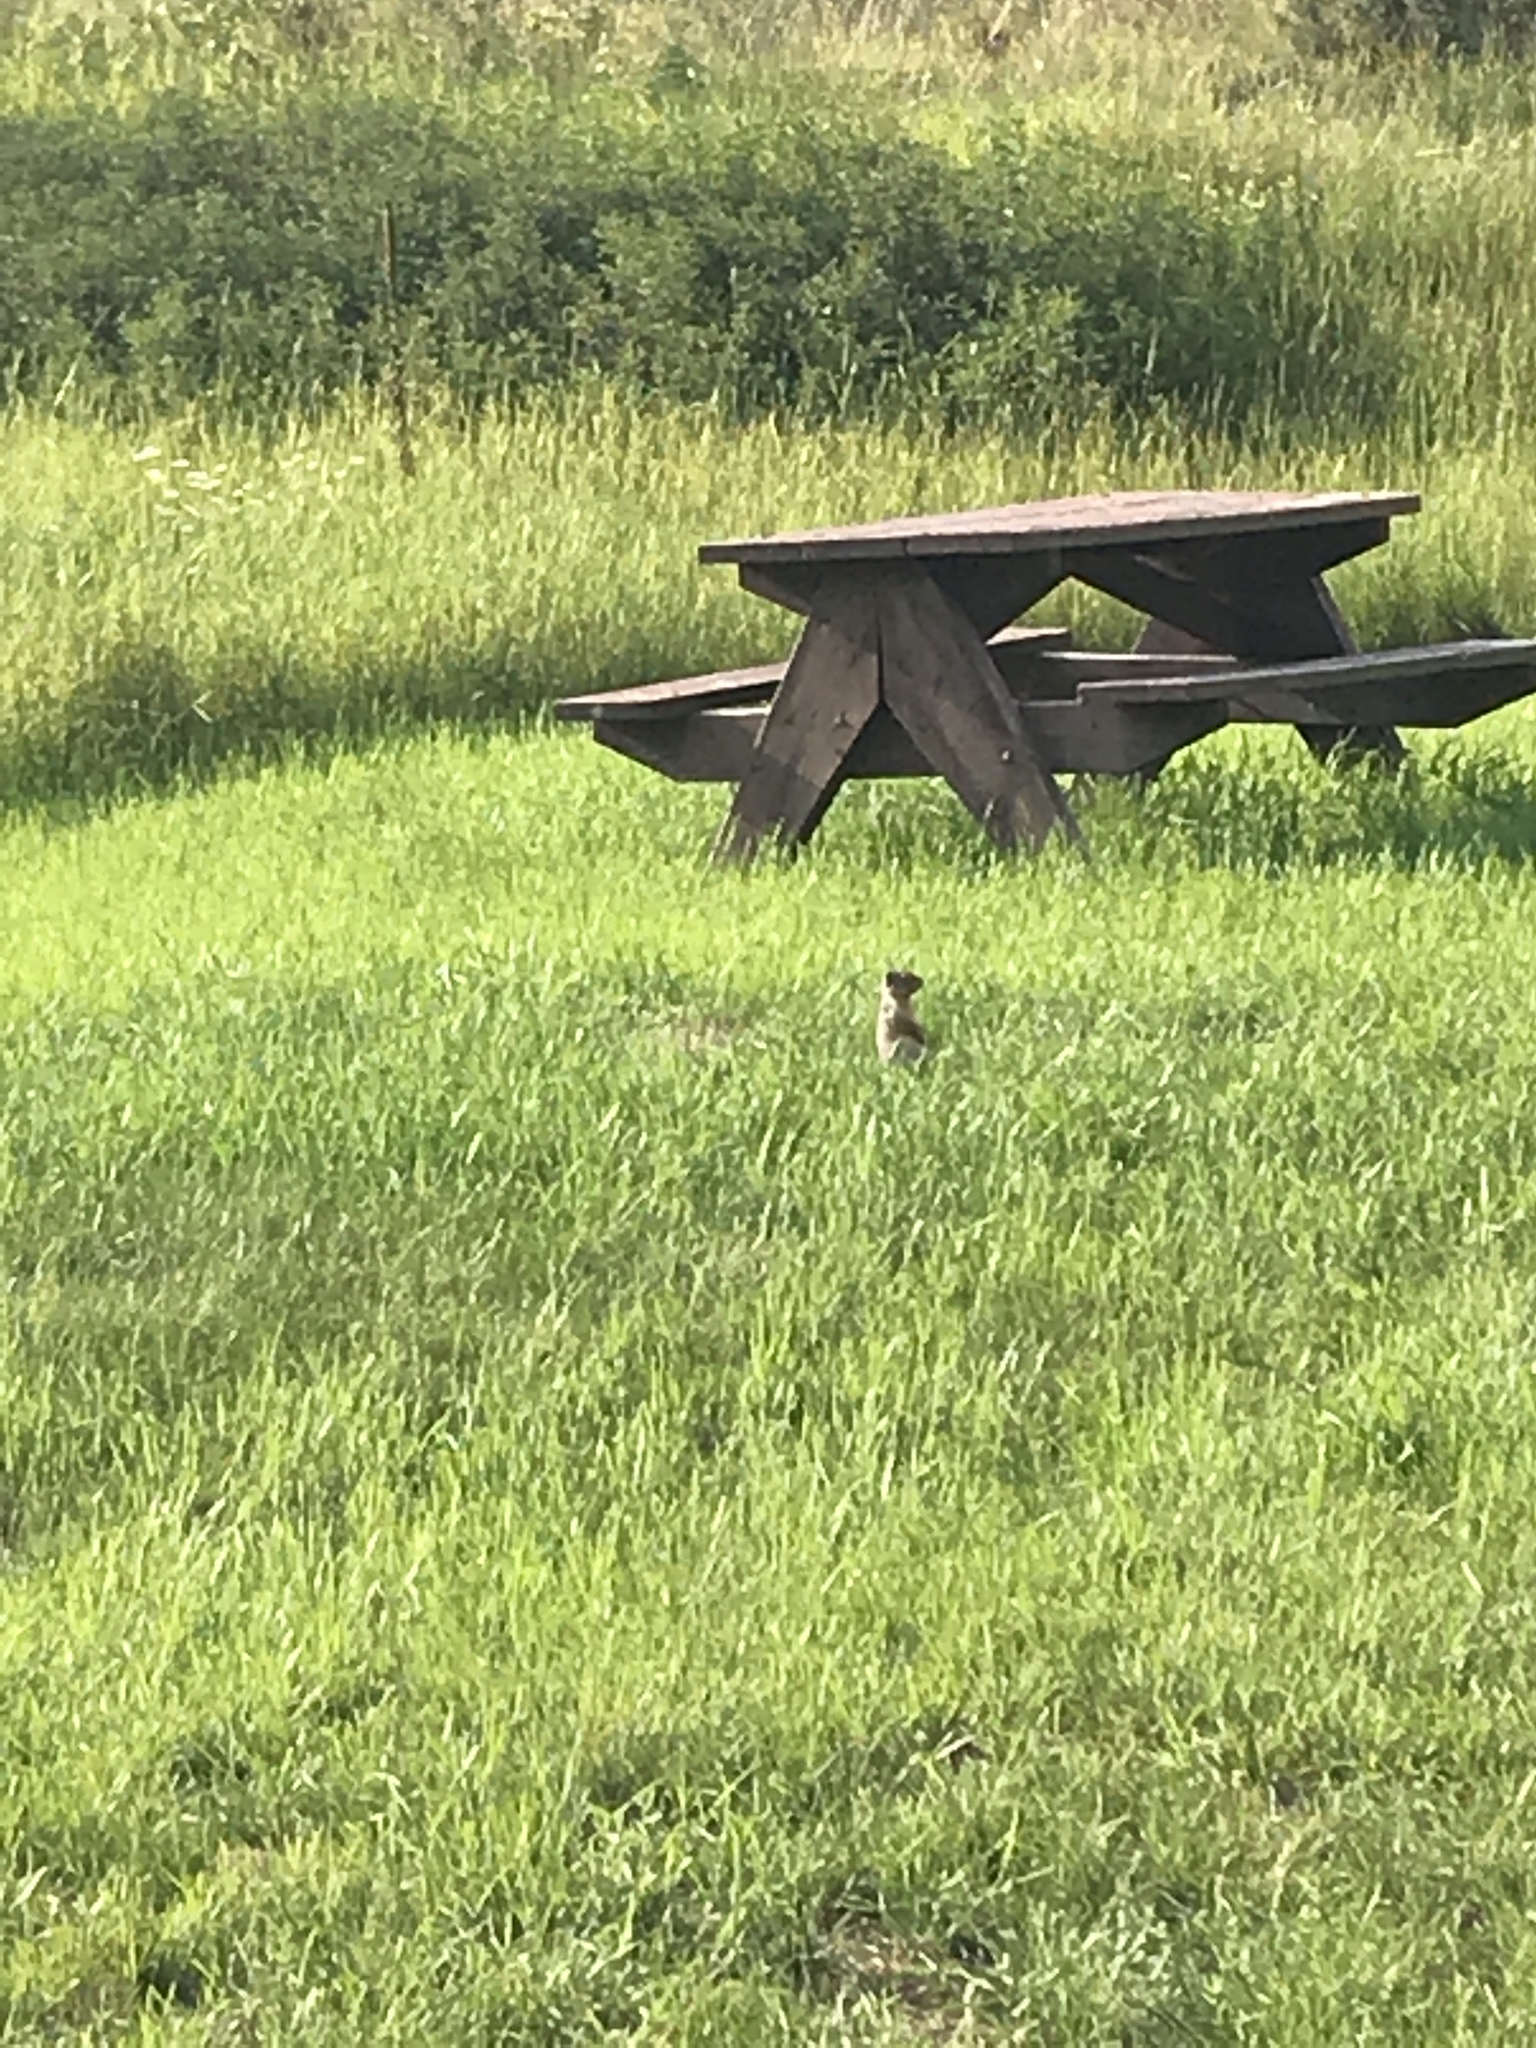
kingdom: Animalia
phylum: Chordata
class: Mammalia
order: Rodentia
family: Sciuridae
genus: Urocitellus
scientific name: Urocitellus columbianus
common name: Columbian ground squirrel
